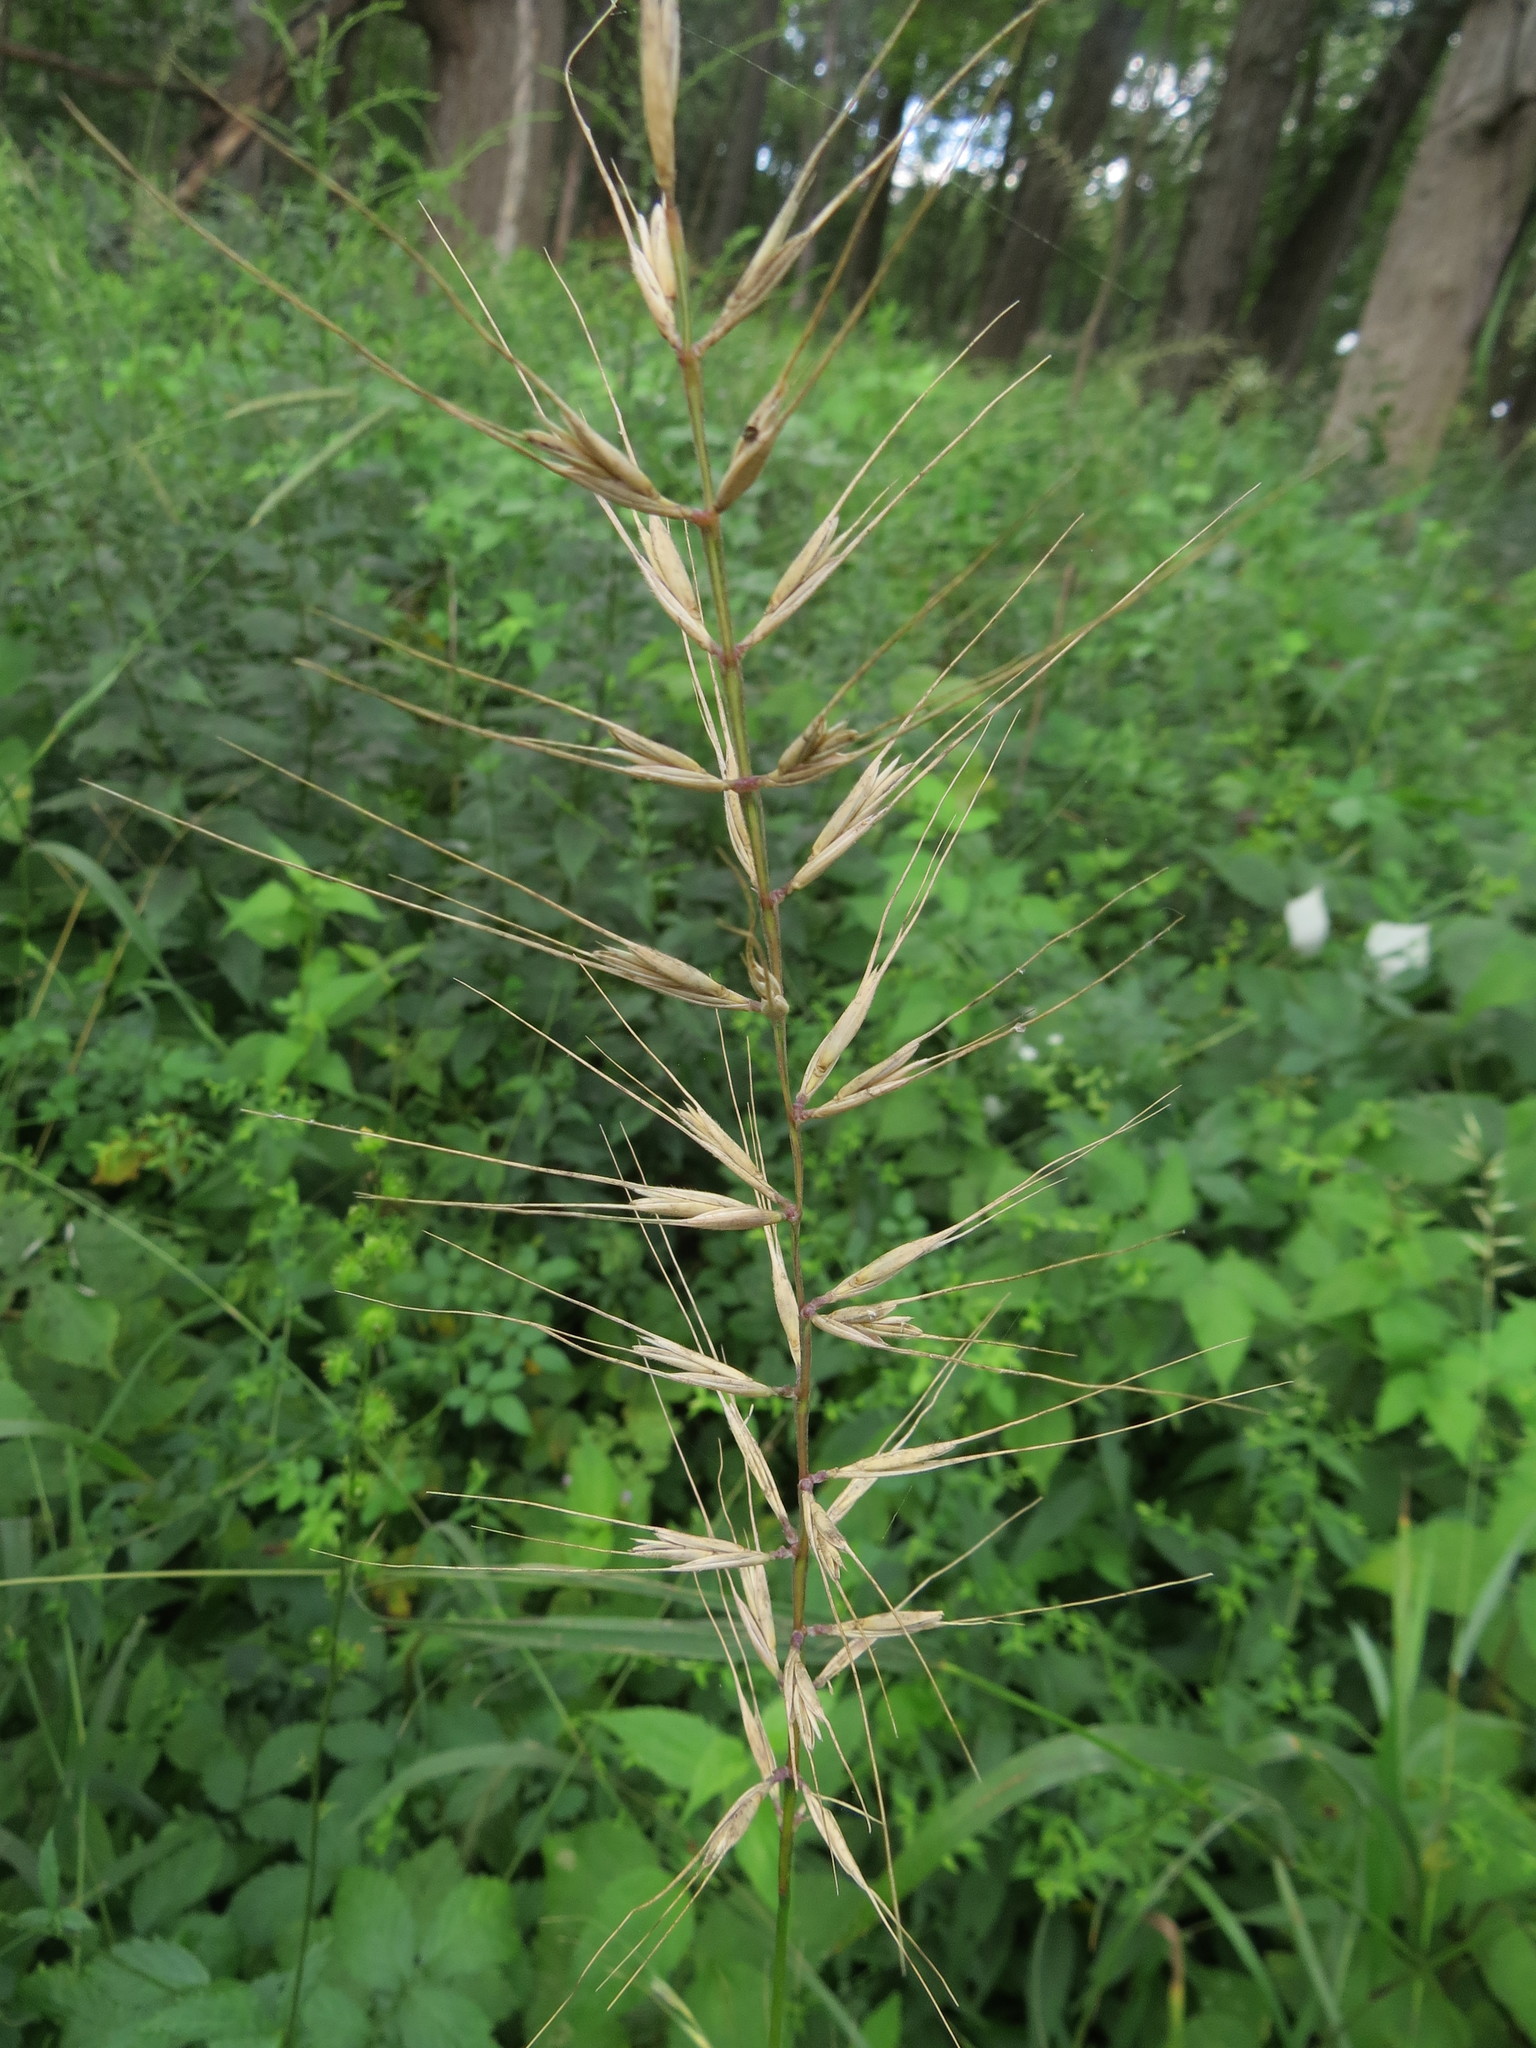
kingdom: Plantae
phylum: Tracheophyta
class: Liliopsida
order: Poales
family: Poaceae
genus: Elymus
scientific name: Elymus hystrix
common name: Bottlebrush grass
